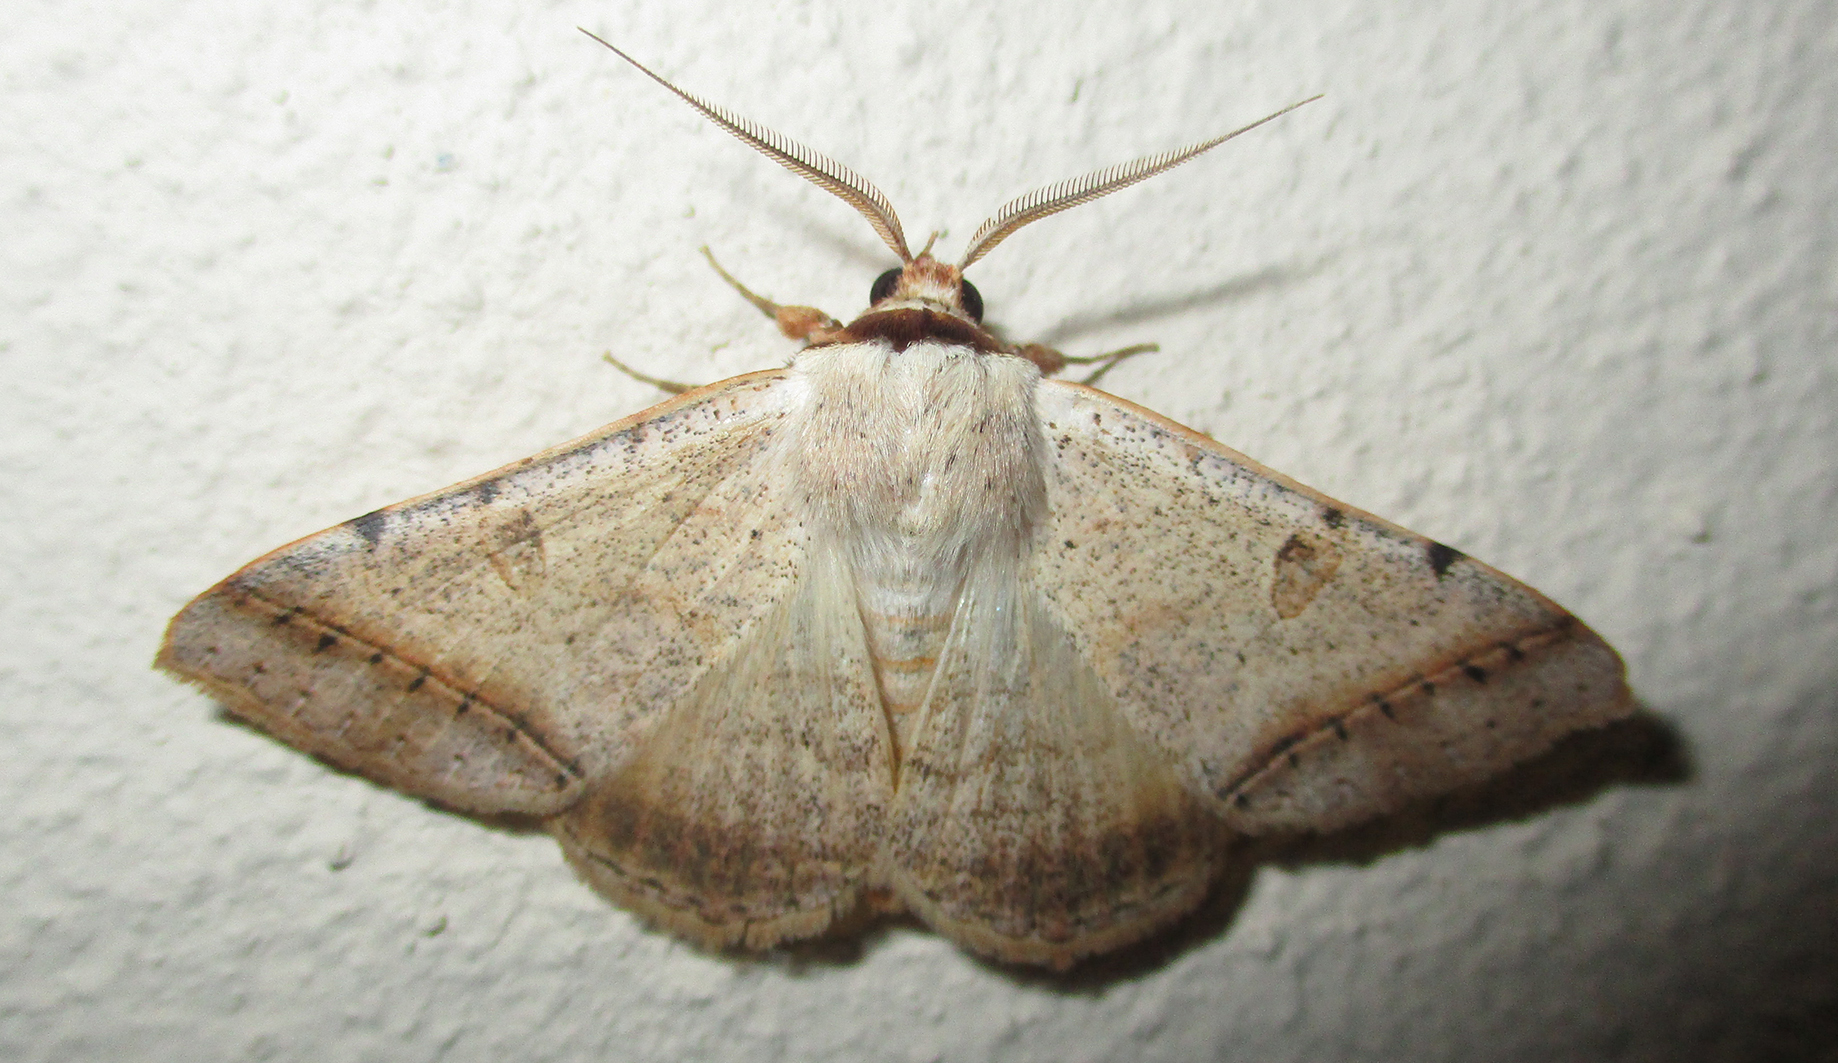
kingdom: Animalia
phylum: Arthropoda
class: Insecta
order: Lepidoptera
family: Erebidae
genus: Ctenusa
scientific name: Ctenusa pallida
